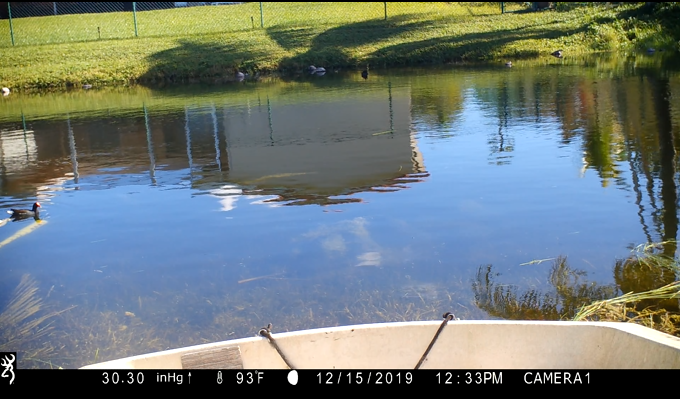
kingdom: Animalia
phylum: Chordata
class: Aves
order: Gruiformes
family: Rallidae
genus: Gallinula
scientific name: Gallinula chloropus
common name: Common moorhen
